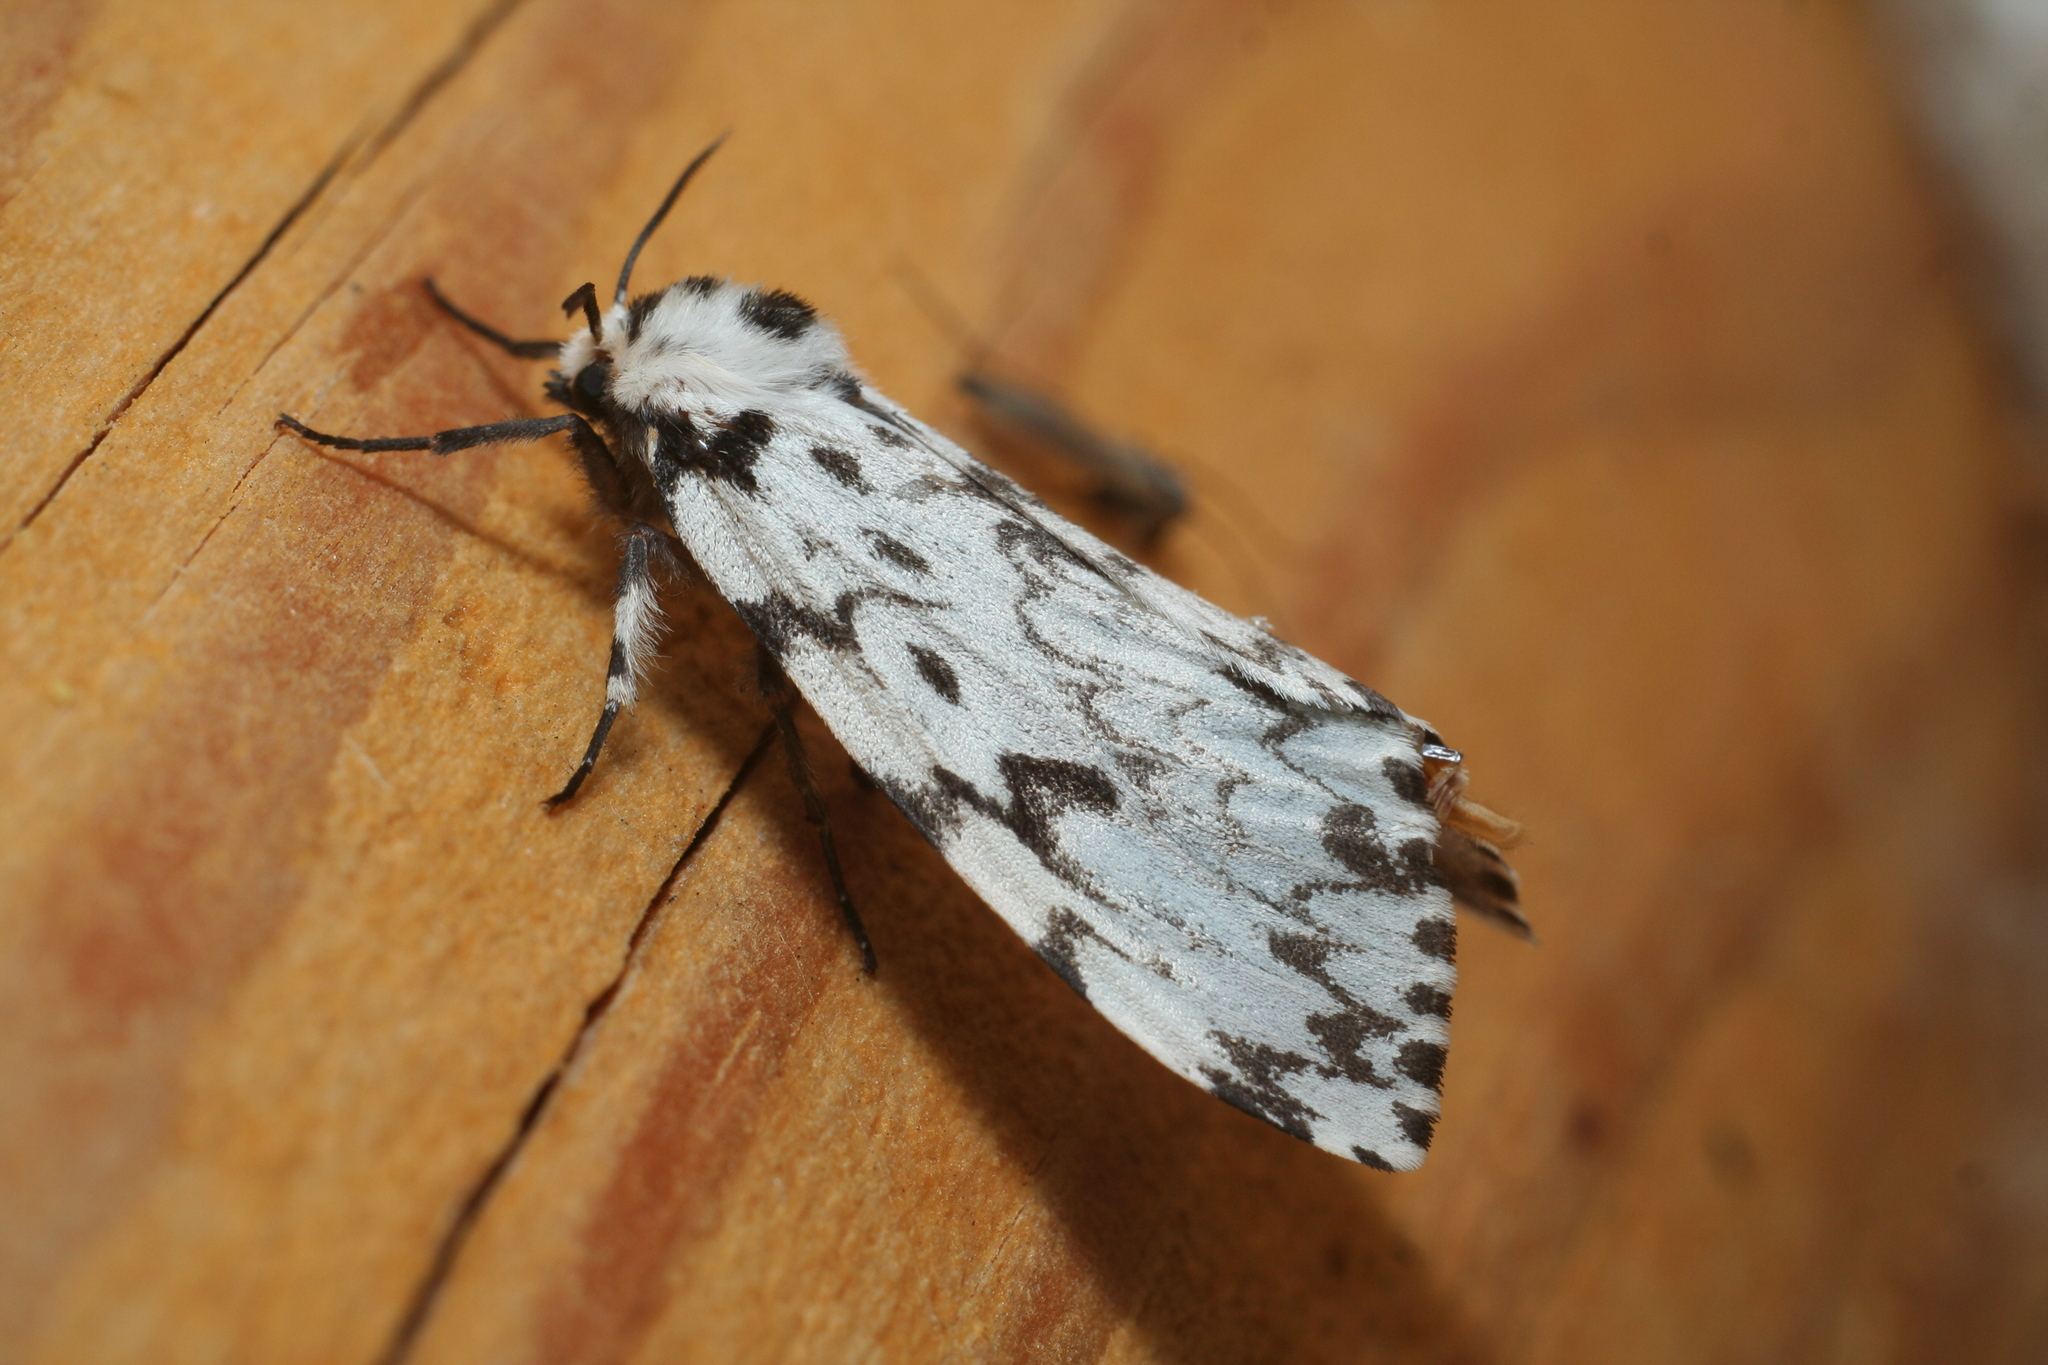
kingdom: Animalia
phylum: Arthropoda
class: Insecta
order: Lepidoptera
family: Erebidae
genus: Lymantria
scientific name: Lymantria monacha
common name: Black arches
